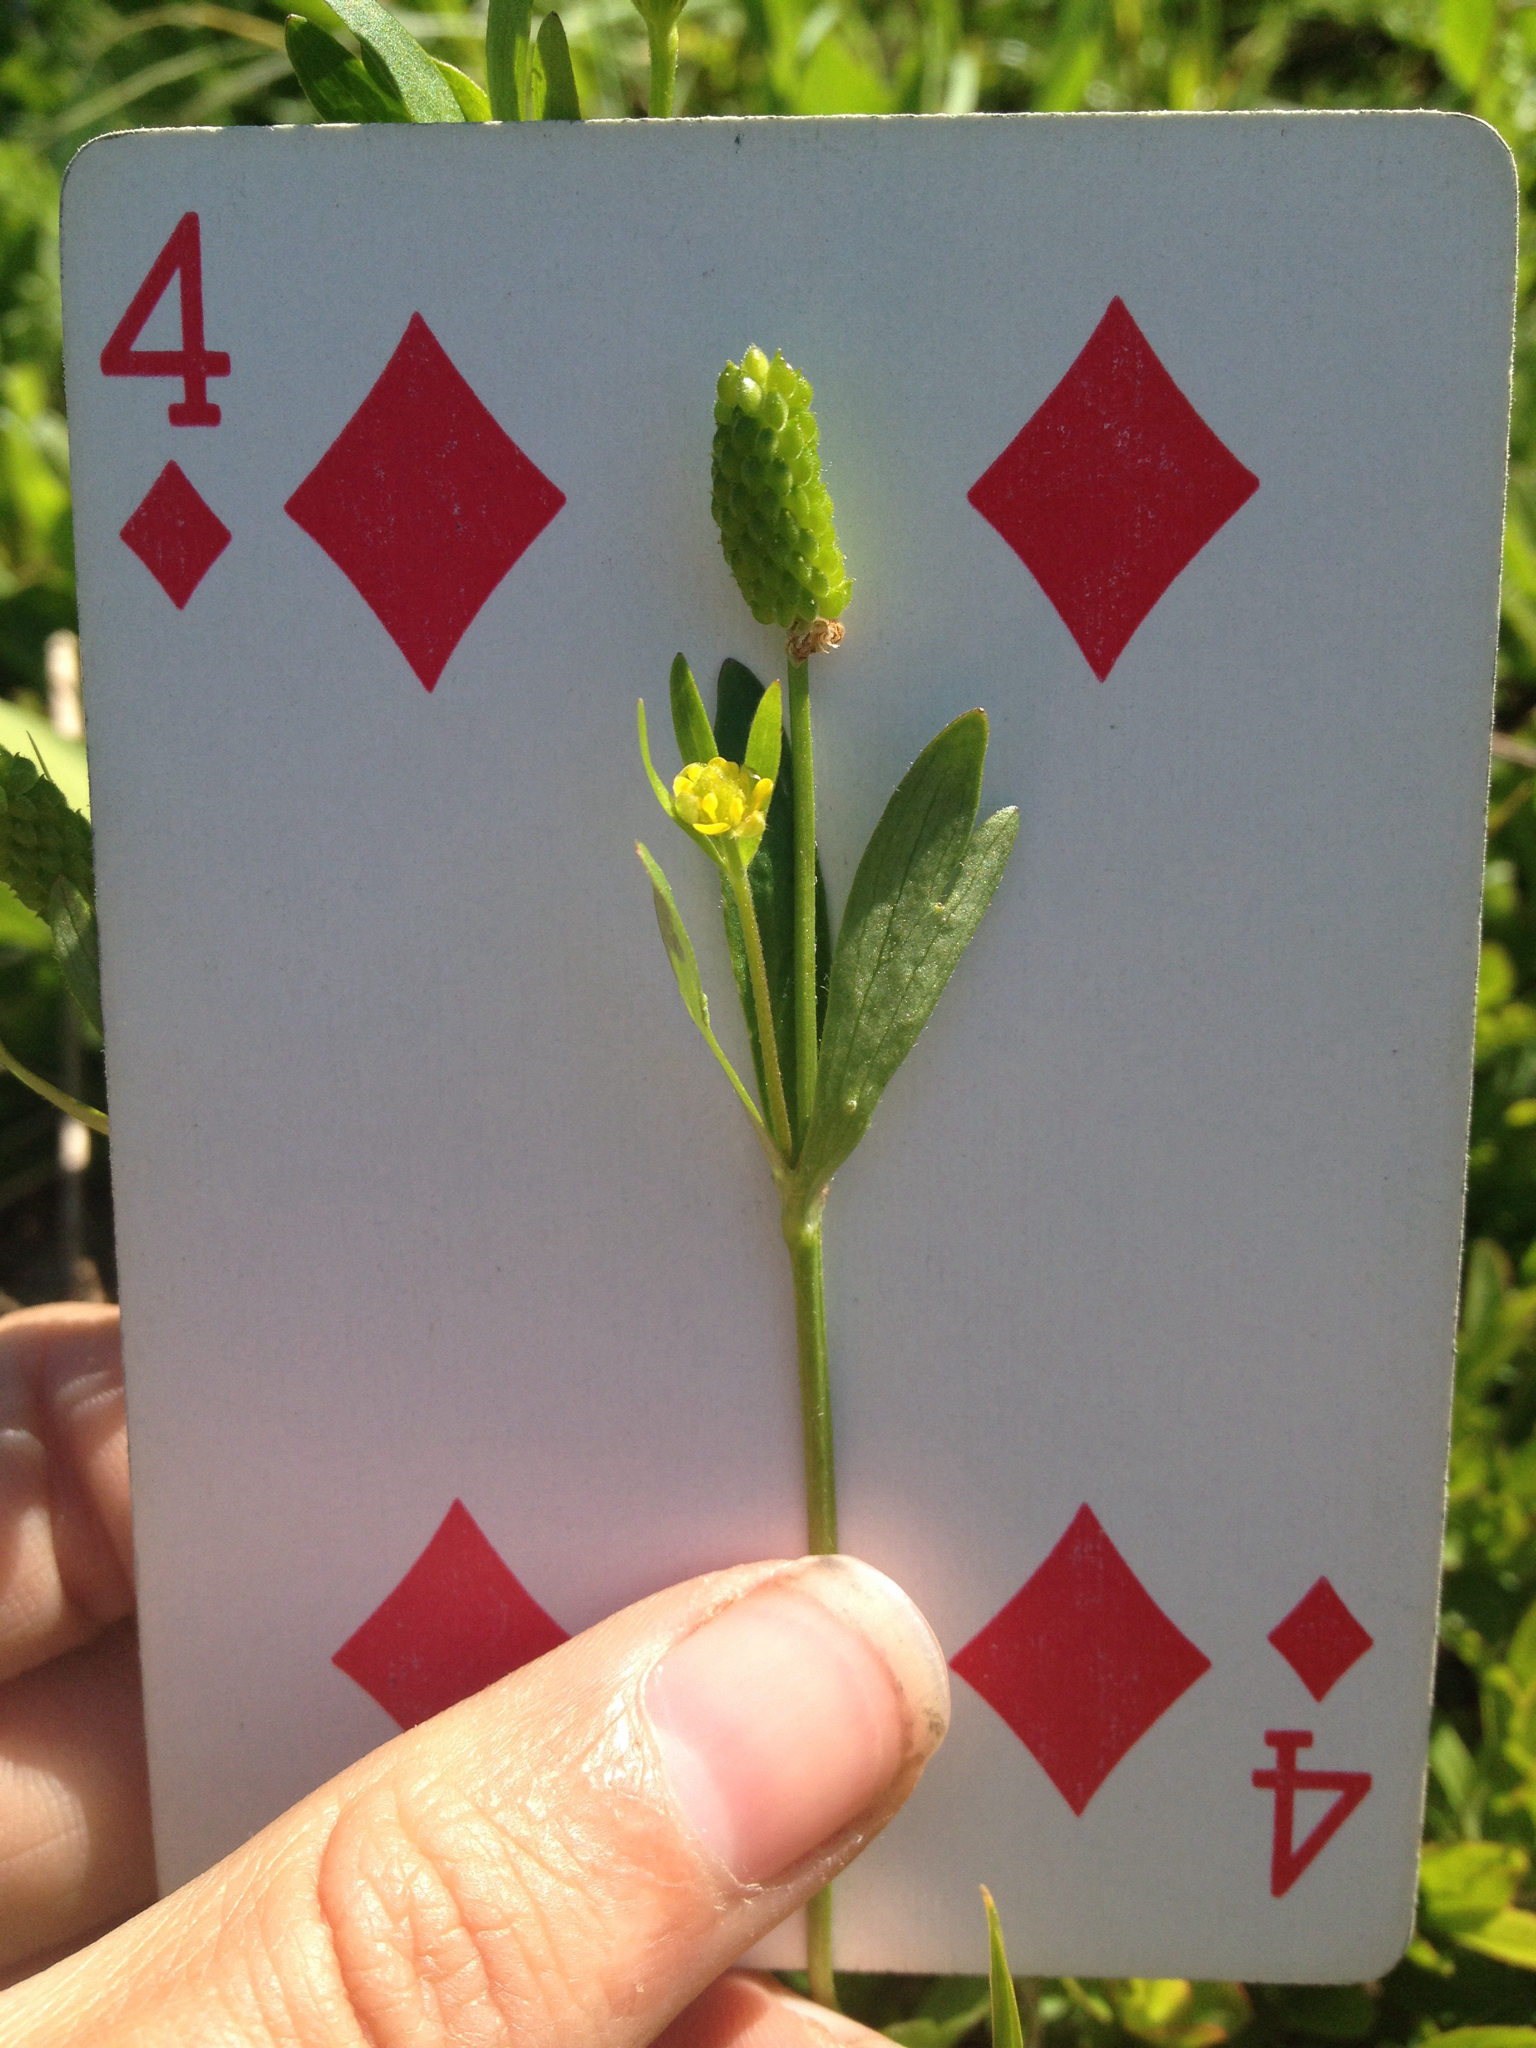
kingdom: Plantae
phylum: Tracheophyta
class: Magnoliopsida
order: Ranunculales
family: Ranunculaceae
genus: Ranunculus
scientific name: Ranunculus inamoenus
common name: Graceful buttercup
